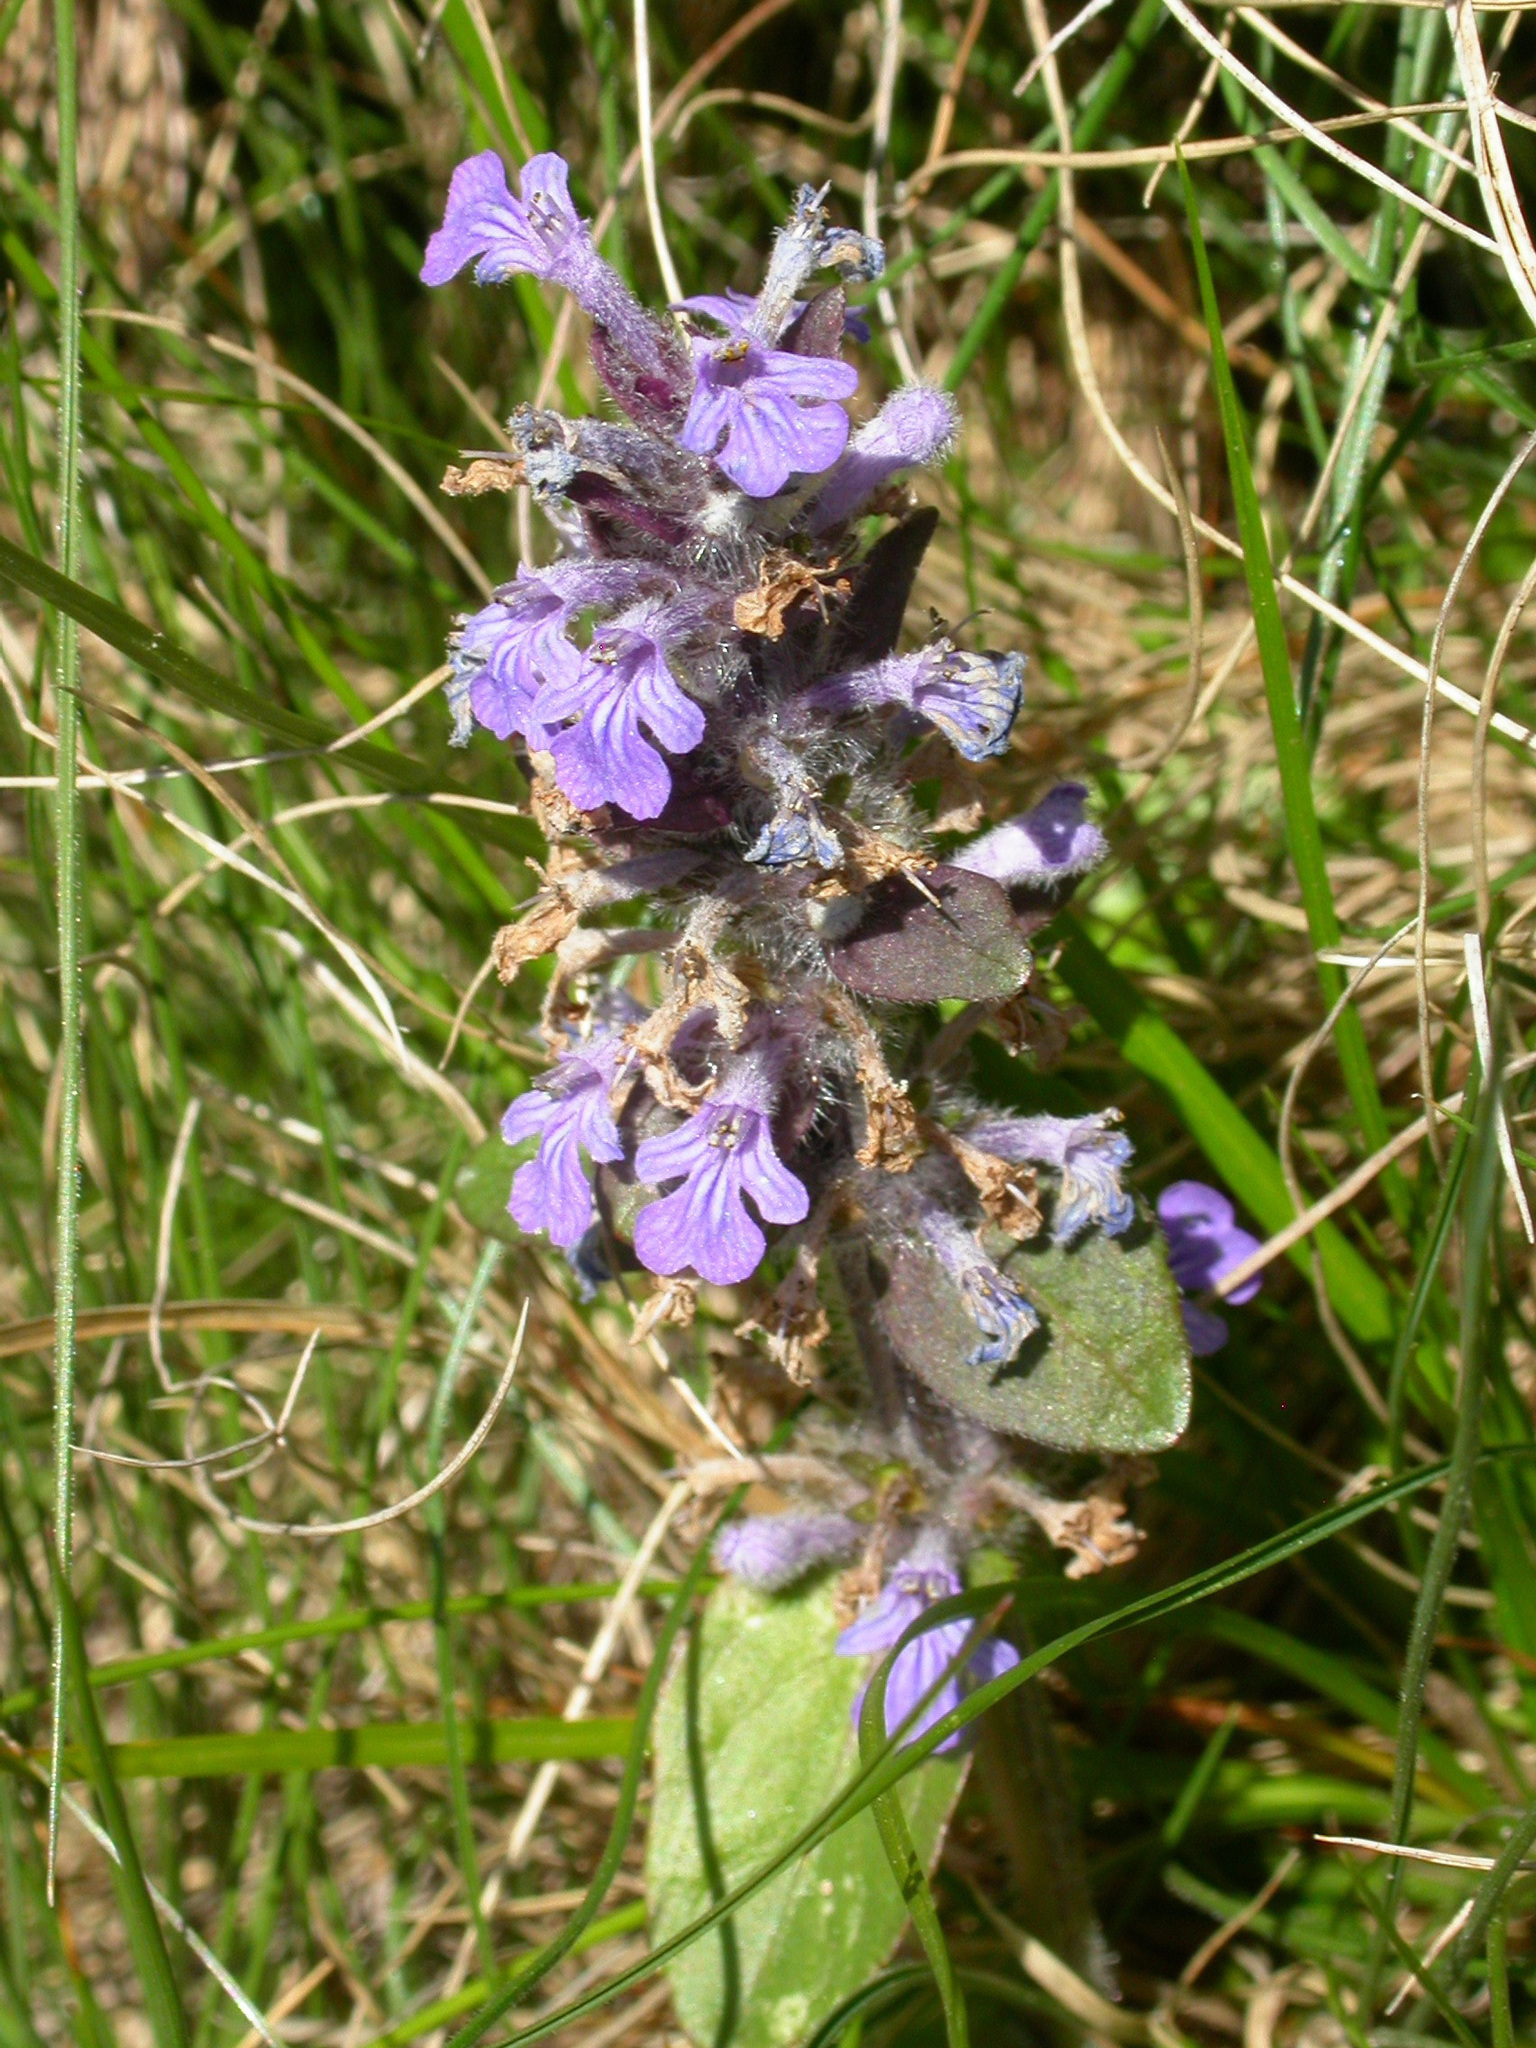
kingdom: Plantae
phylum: Tracheophyta
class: Magnoliopsida
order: Lamiales
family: Lamiaceae
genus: Ajuga
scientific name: Ajuga reptans
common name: Bugle
